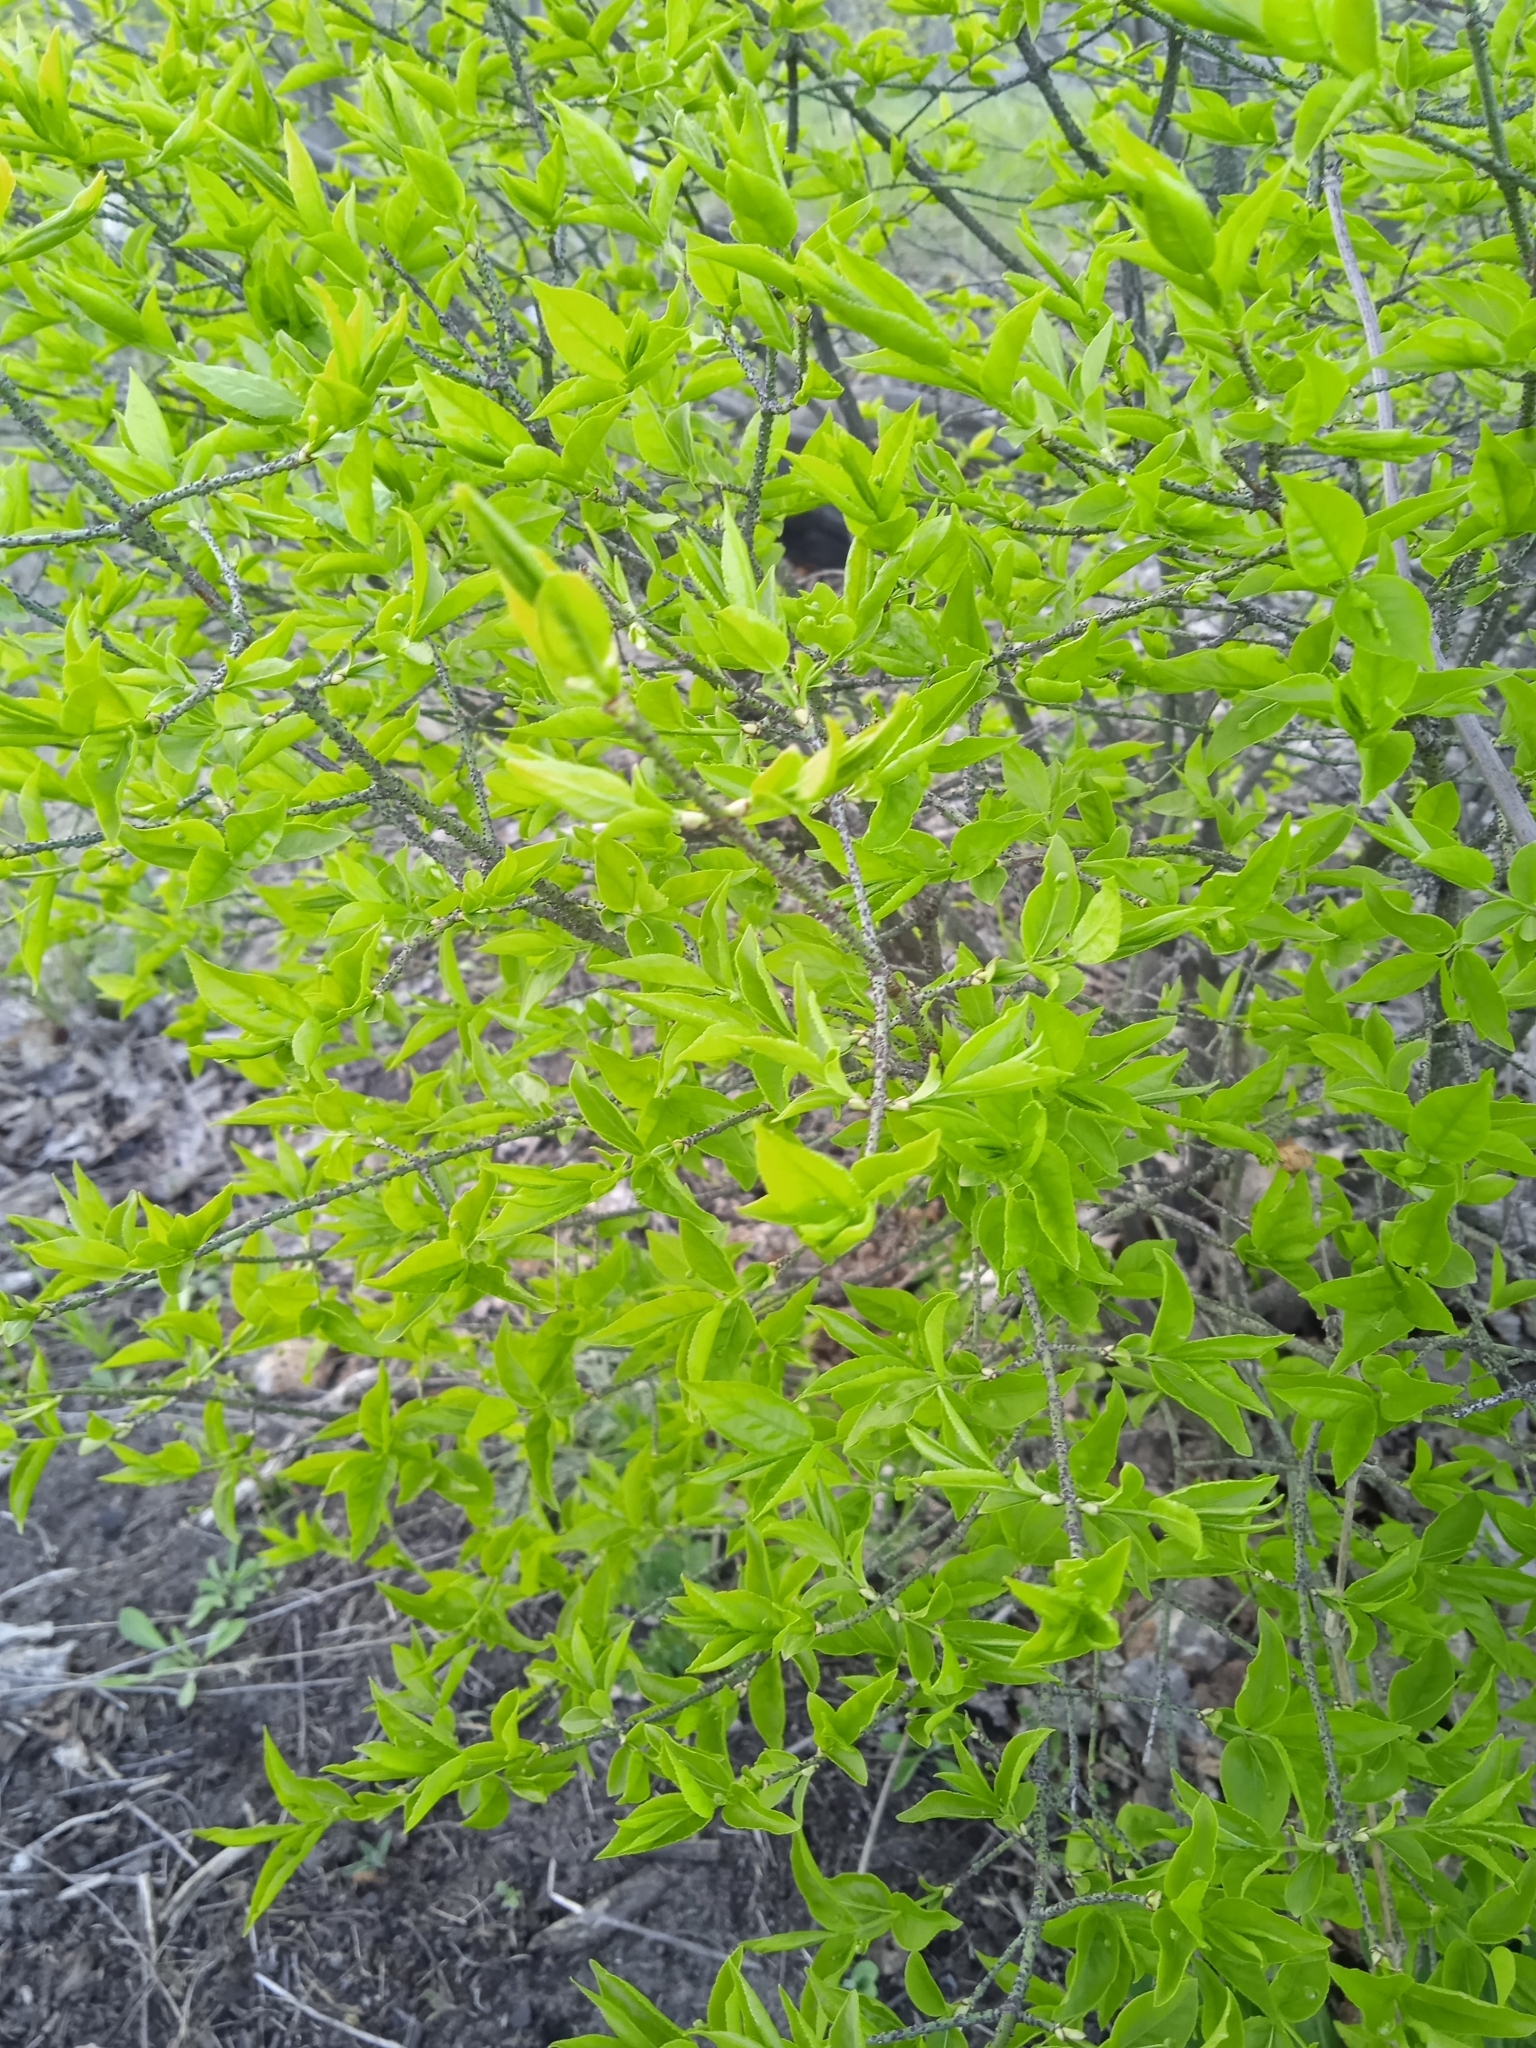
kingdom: Plantae
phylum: Tracheophyta
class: Magnoliopsida
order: Celastrales
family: Celastraceae
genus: Euonymus
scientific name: Euonymus verrucosus
